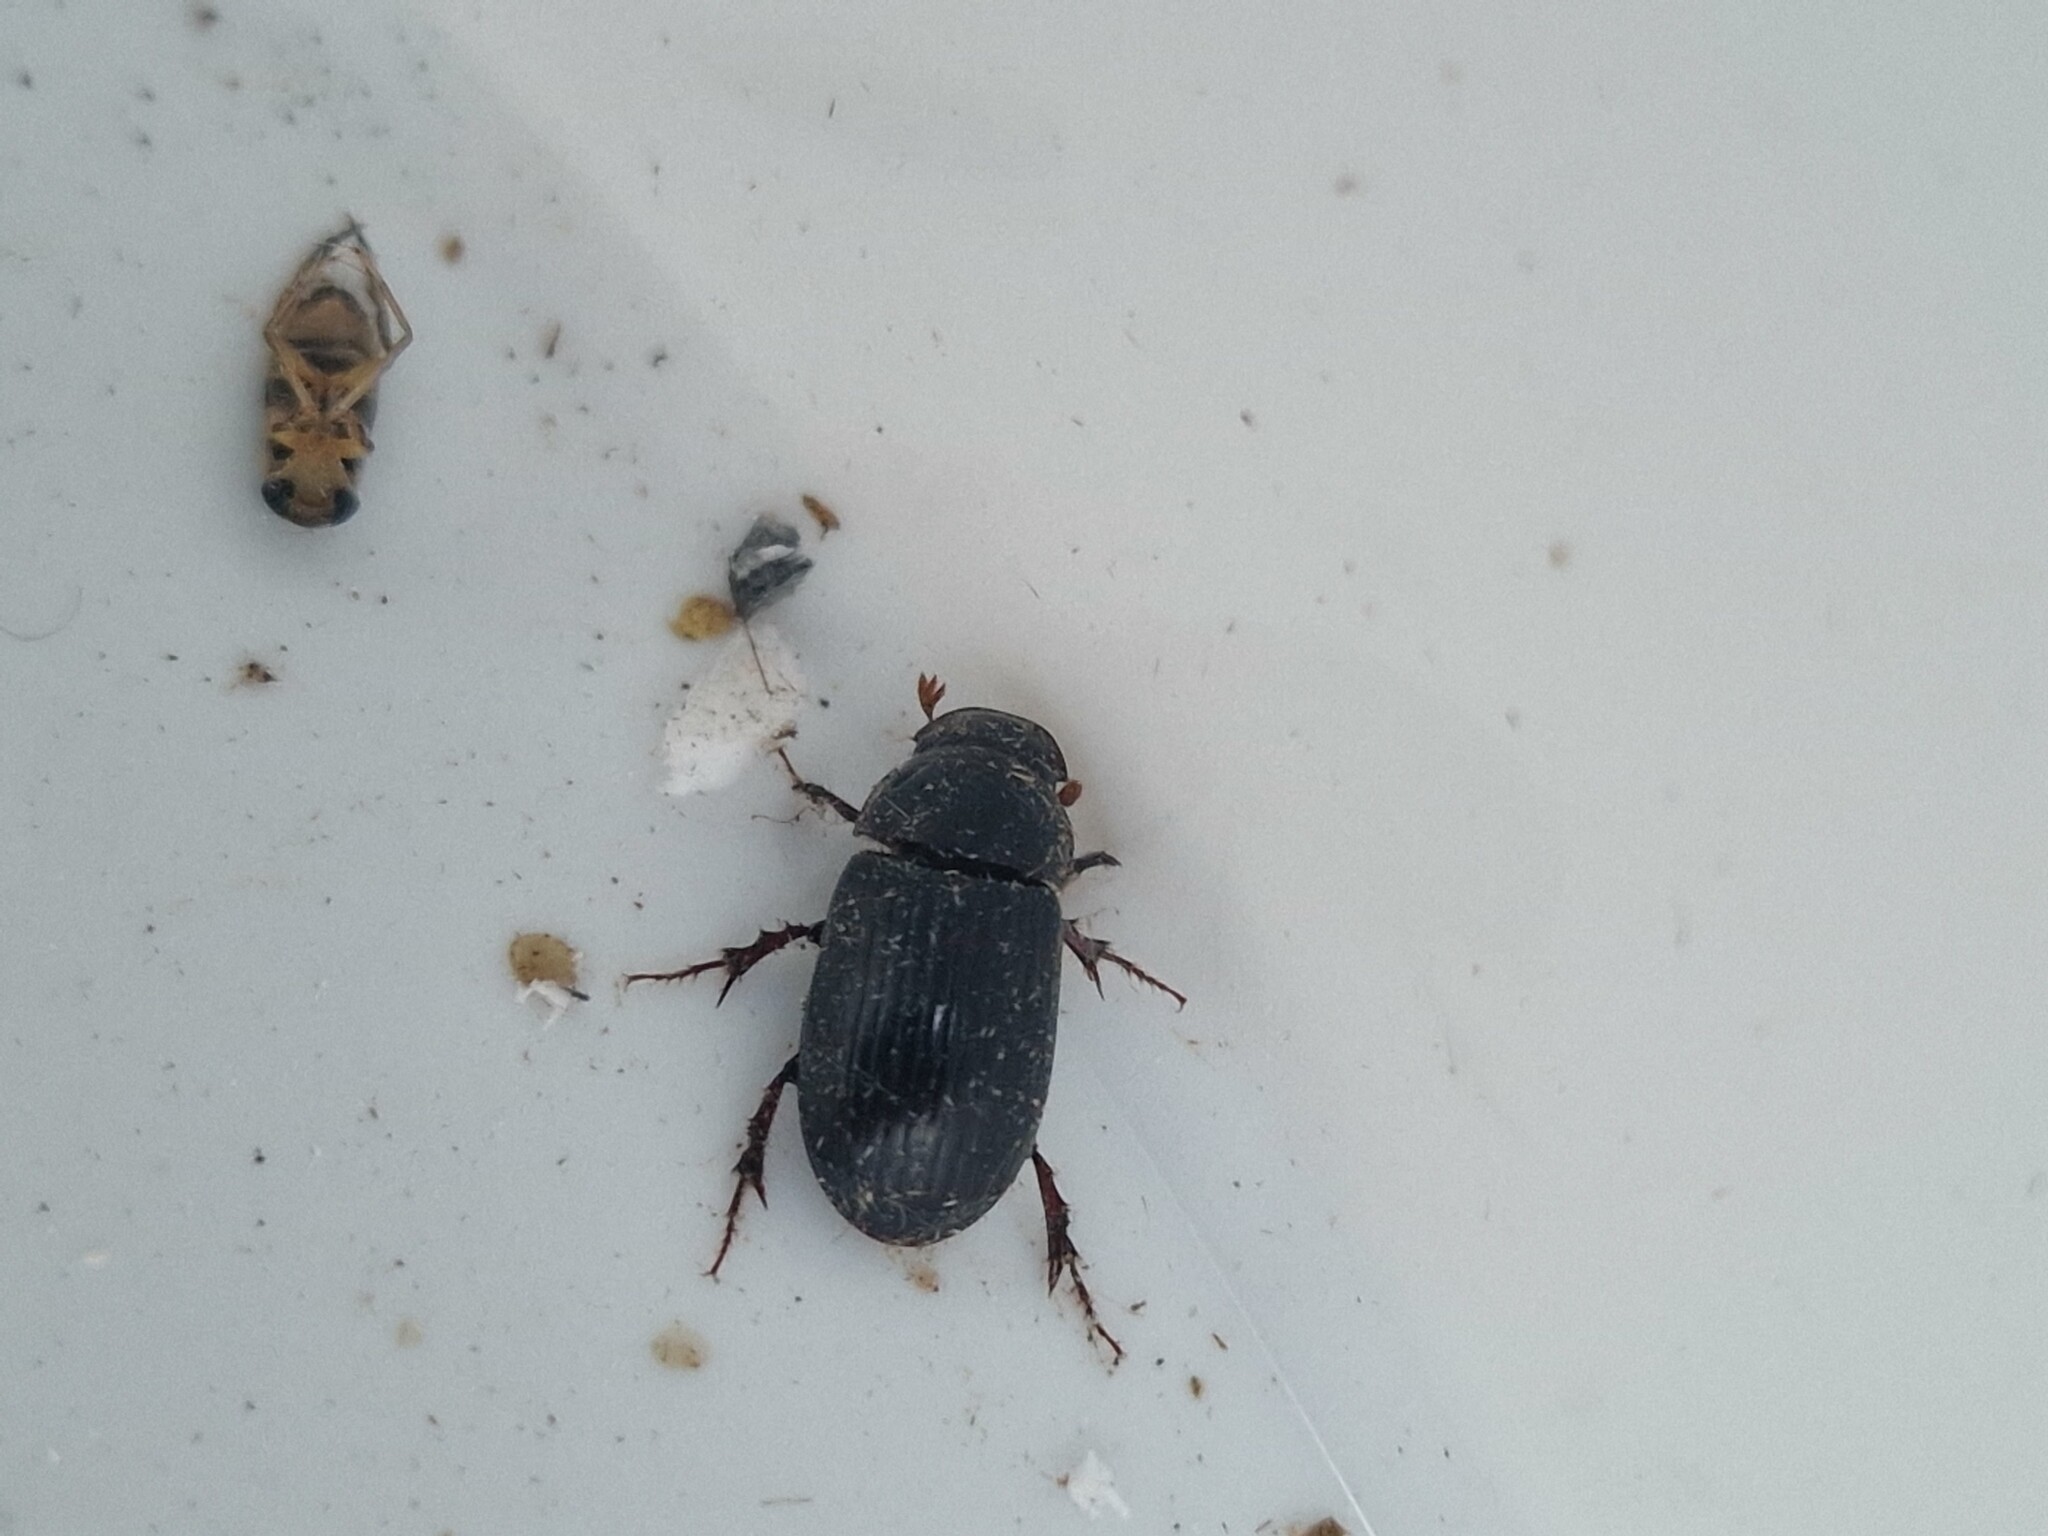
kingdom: Animalia
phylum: Arthropoda
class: Insecta
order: Coleoptera
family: Scarabaeidae
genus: Acrossus
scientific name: Acrossus rufipes
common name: Night-flying dung beetle
